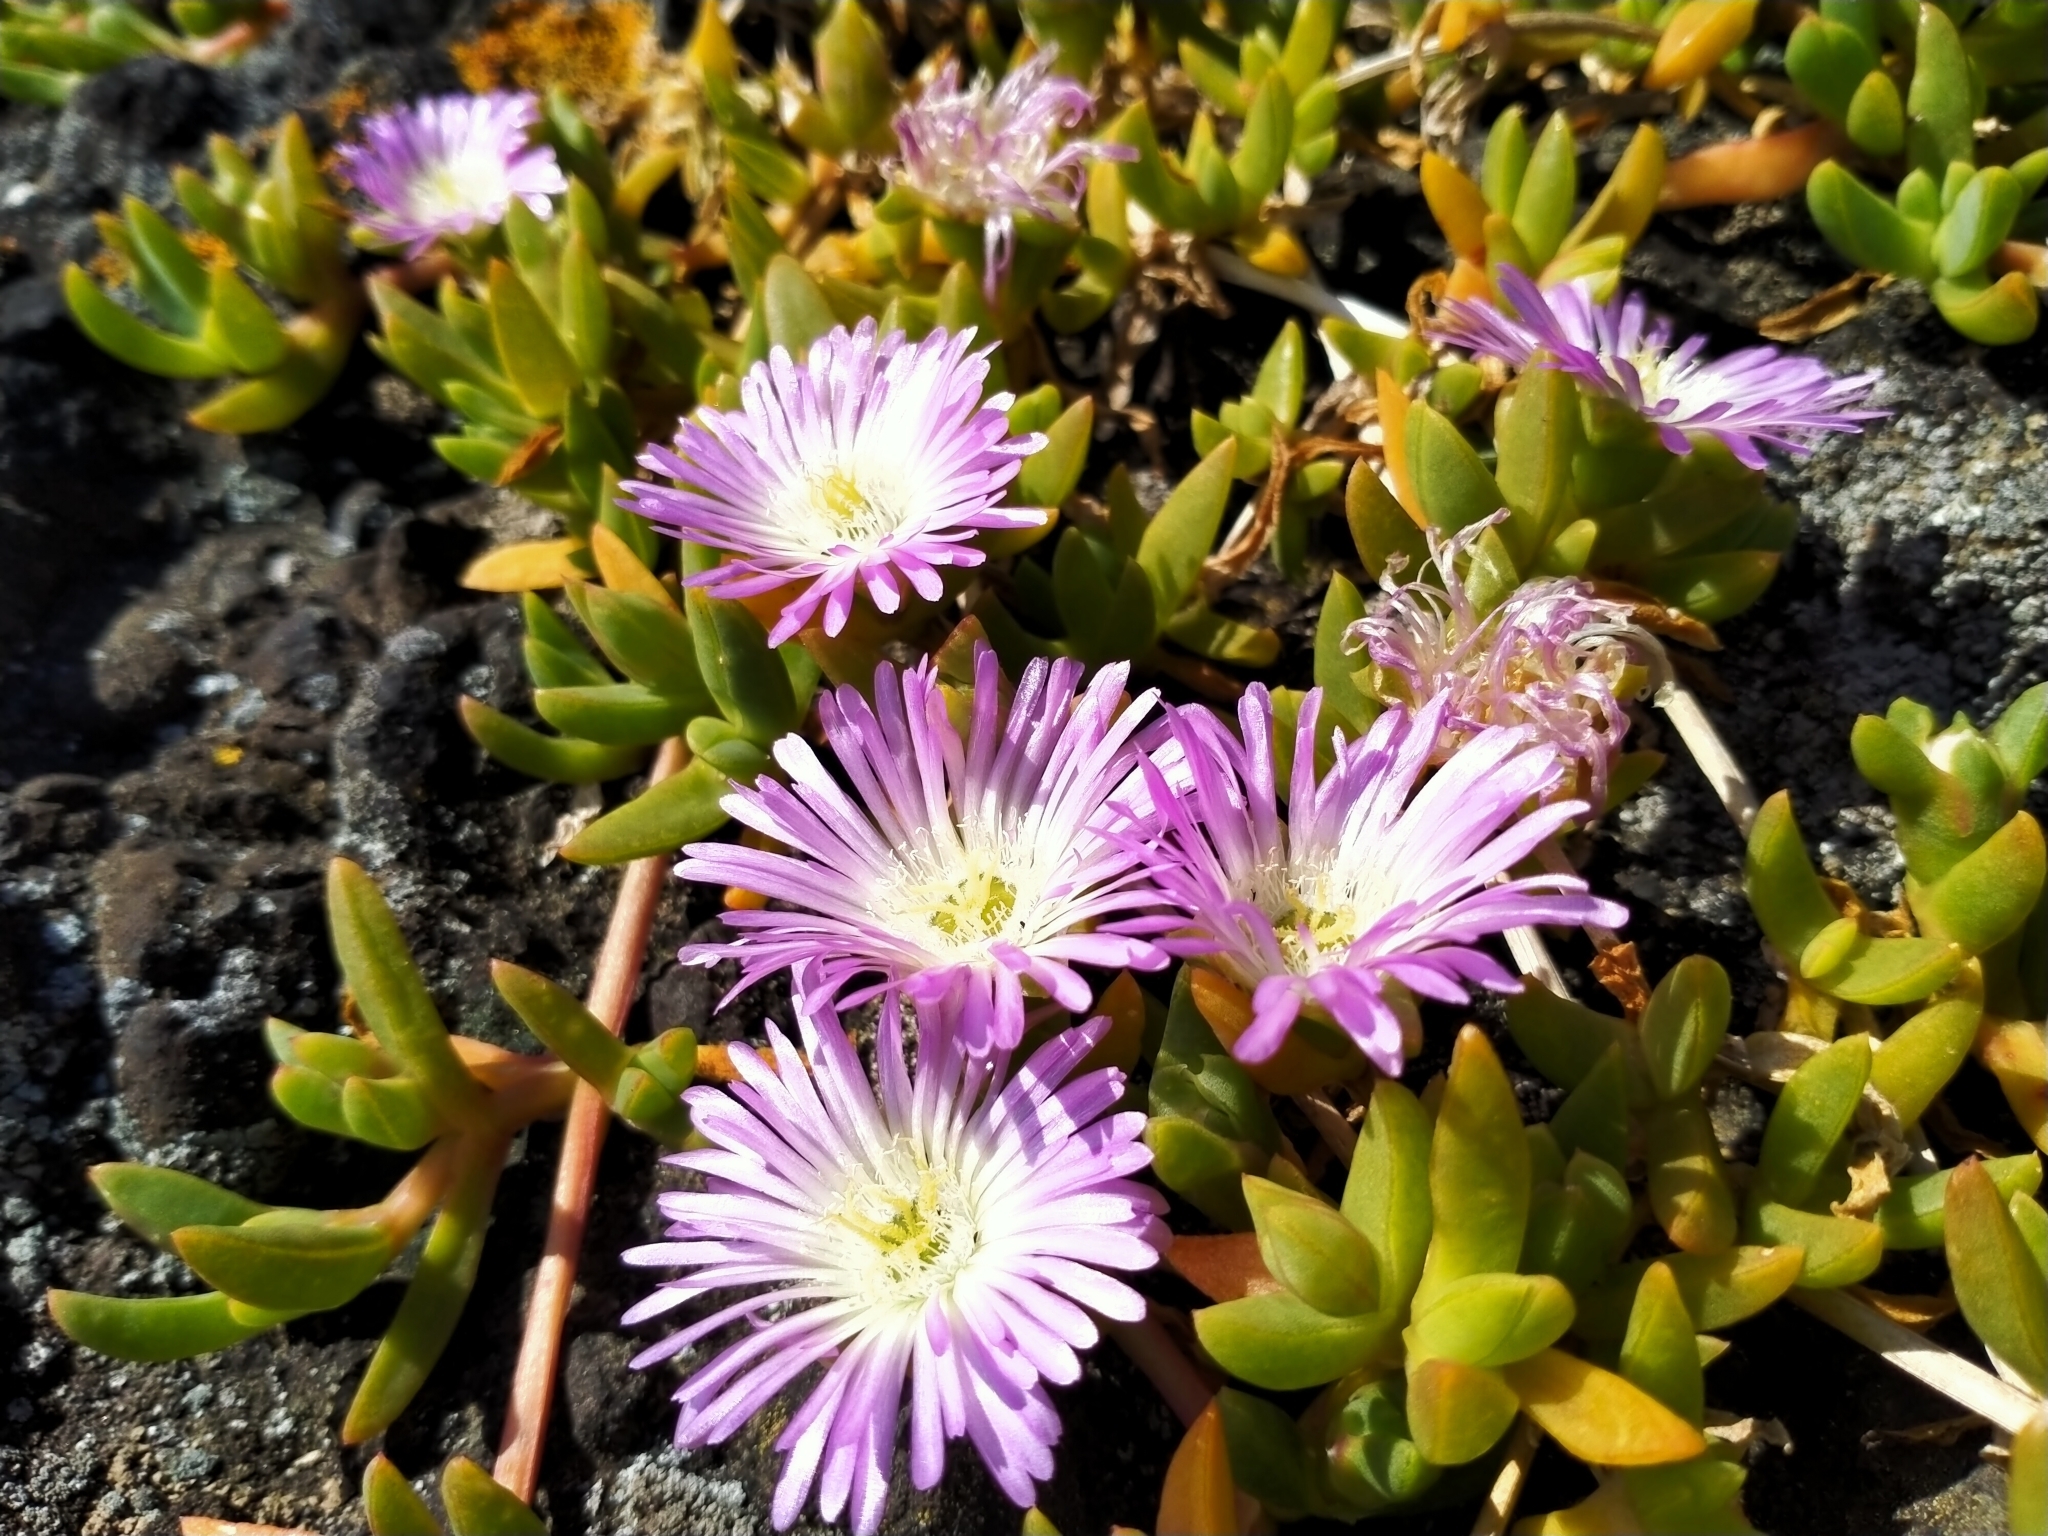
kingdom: Plantae
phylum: Tracheophyta
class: Magnoliopsida
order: Caryophyllales
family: Aizoaceae
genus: Disphyma
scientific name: Disphyma australe
